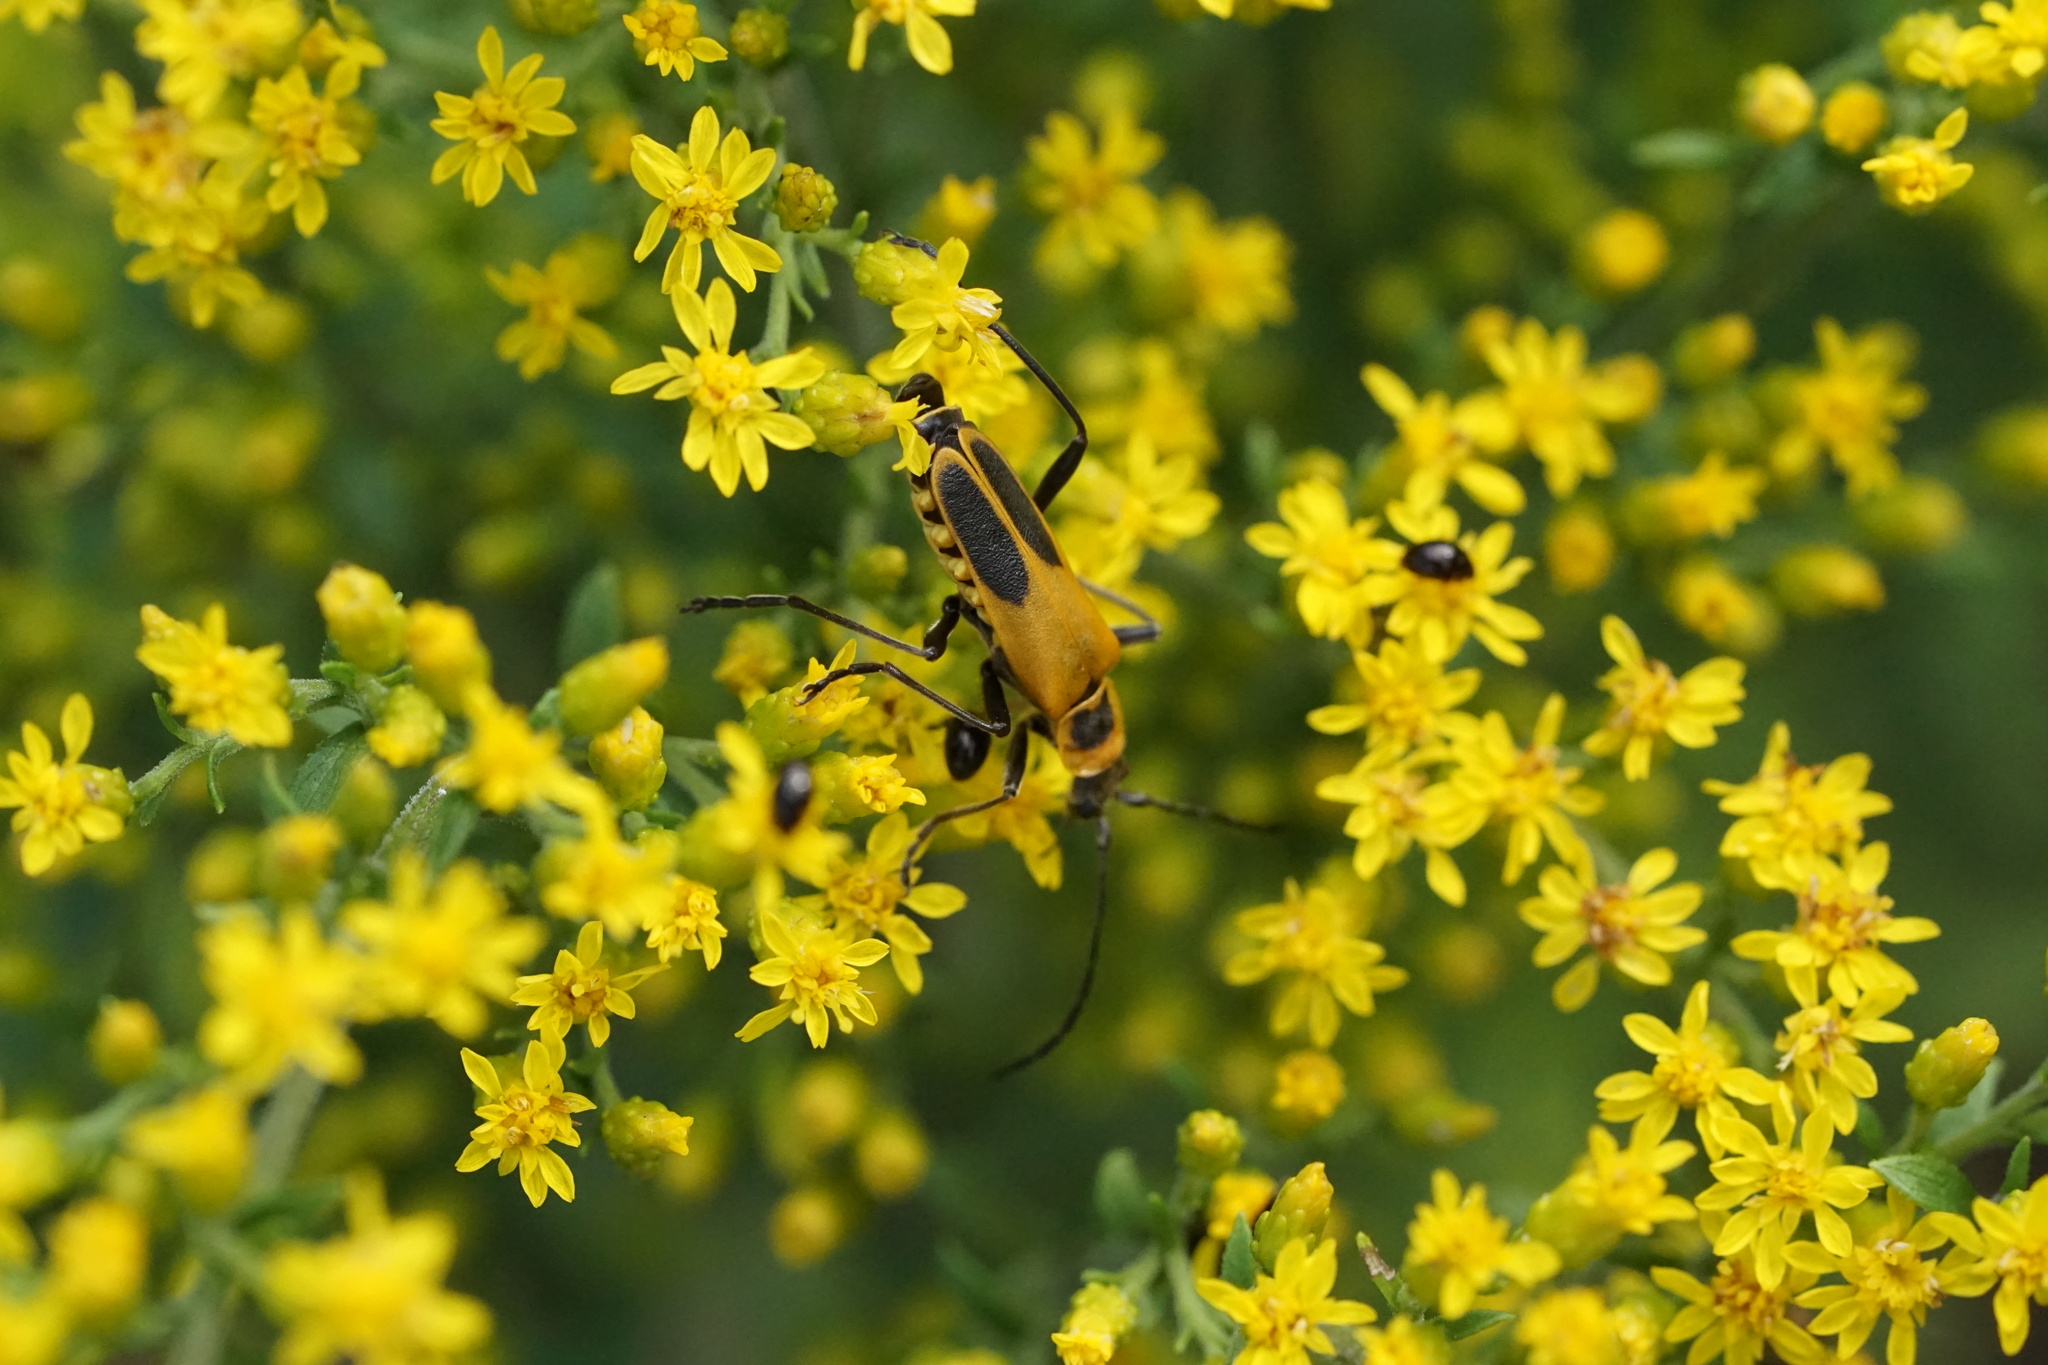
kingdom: Animalia
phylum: Arthropoda
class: Insecta
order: Coleoptera
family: Cantharidae
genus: Chauliognathus
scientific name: Chauliognathus pensylvanicus
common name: Goldenrod soldier beetle
